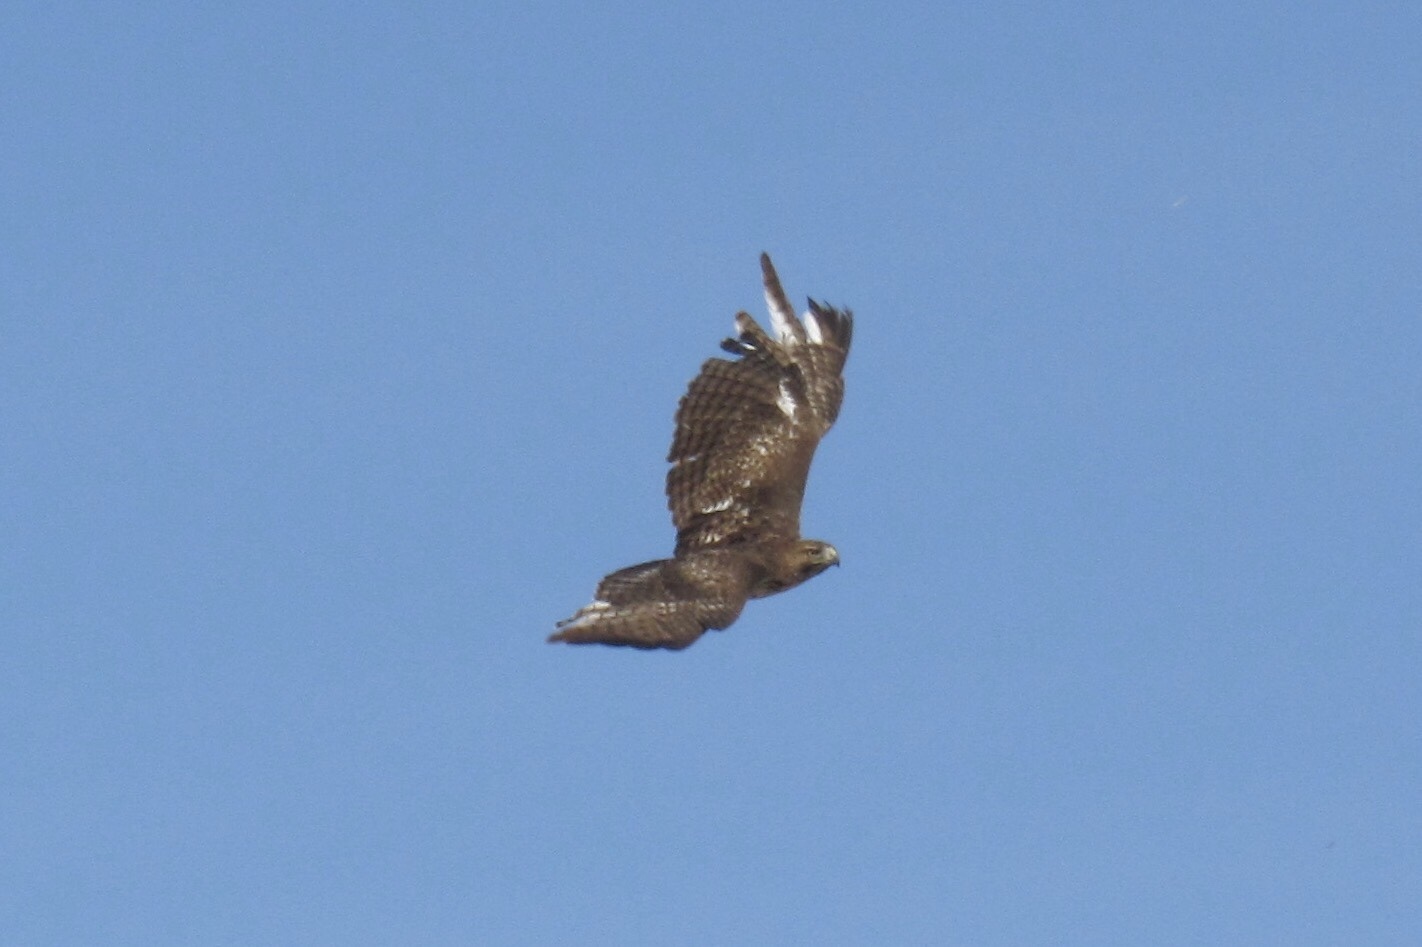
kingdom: Animalia
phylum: Chordata
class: Aves
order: Accipitriformes
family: Accipitridae
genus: Buteo
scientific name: Buteo jamaicensis
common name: Red-tailed hawk
